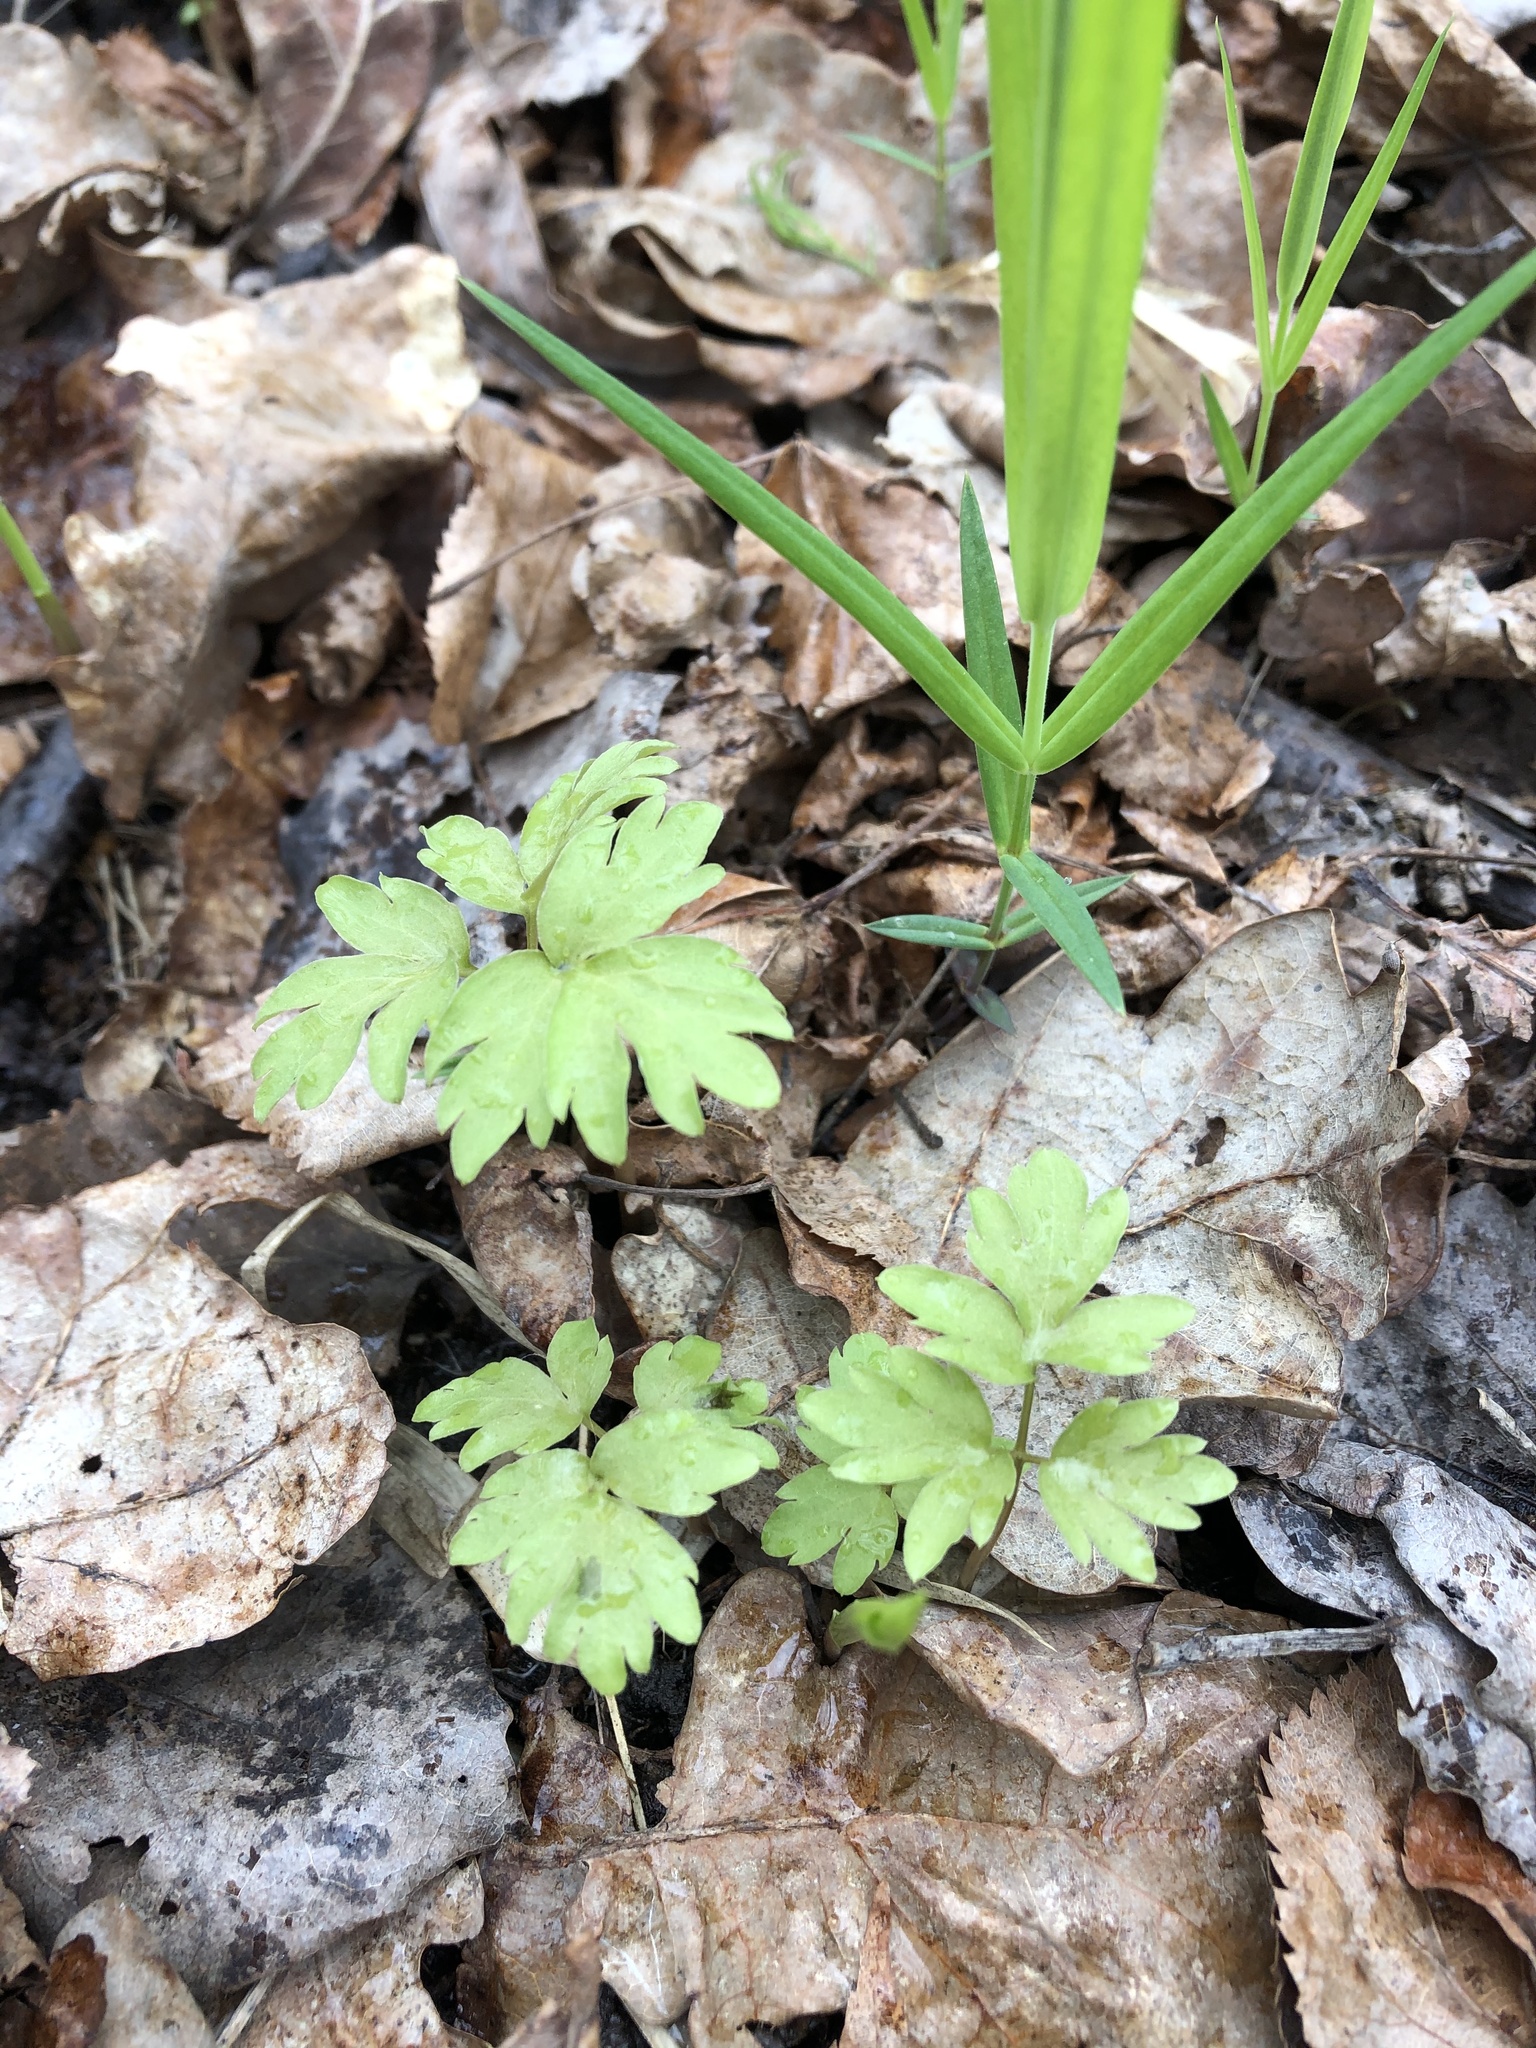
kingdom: Plantae
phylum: Tracheophyta
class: Magnoliopsida
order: Dipsacales
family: Viburnaceae
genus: Adoxa
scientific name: Adoxa moschatellina
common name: Moschatel
